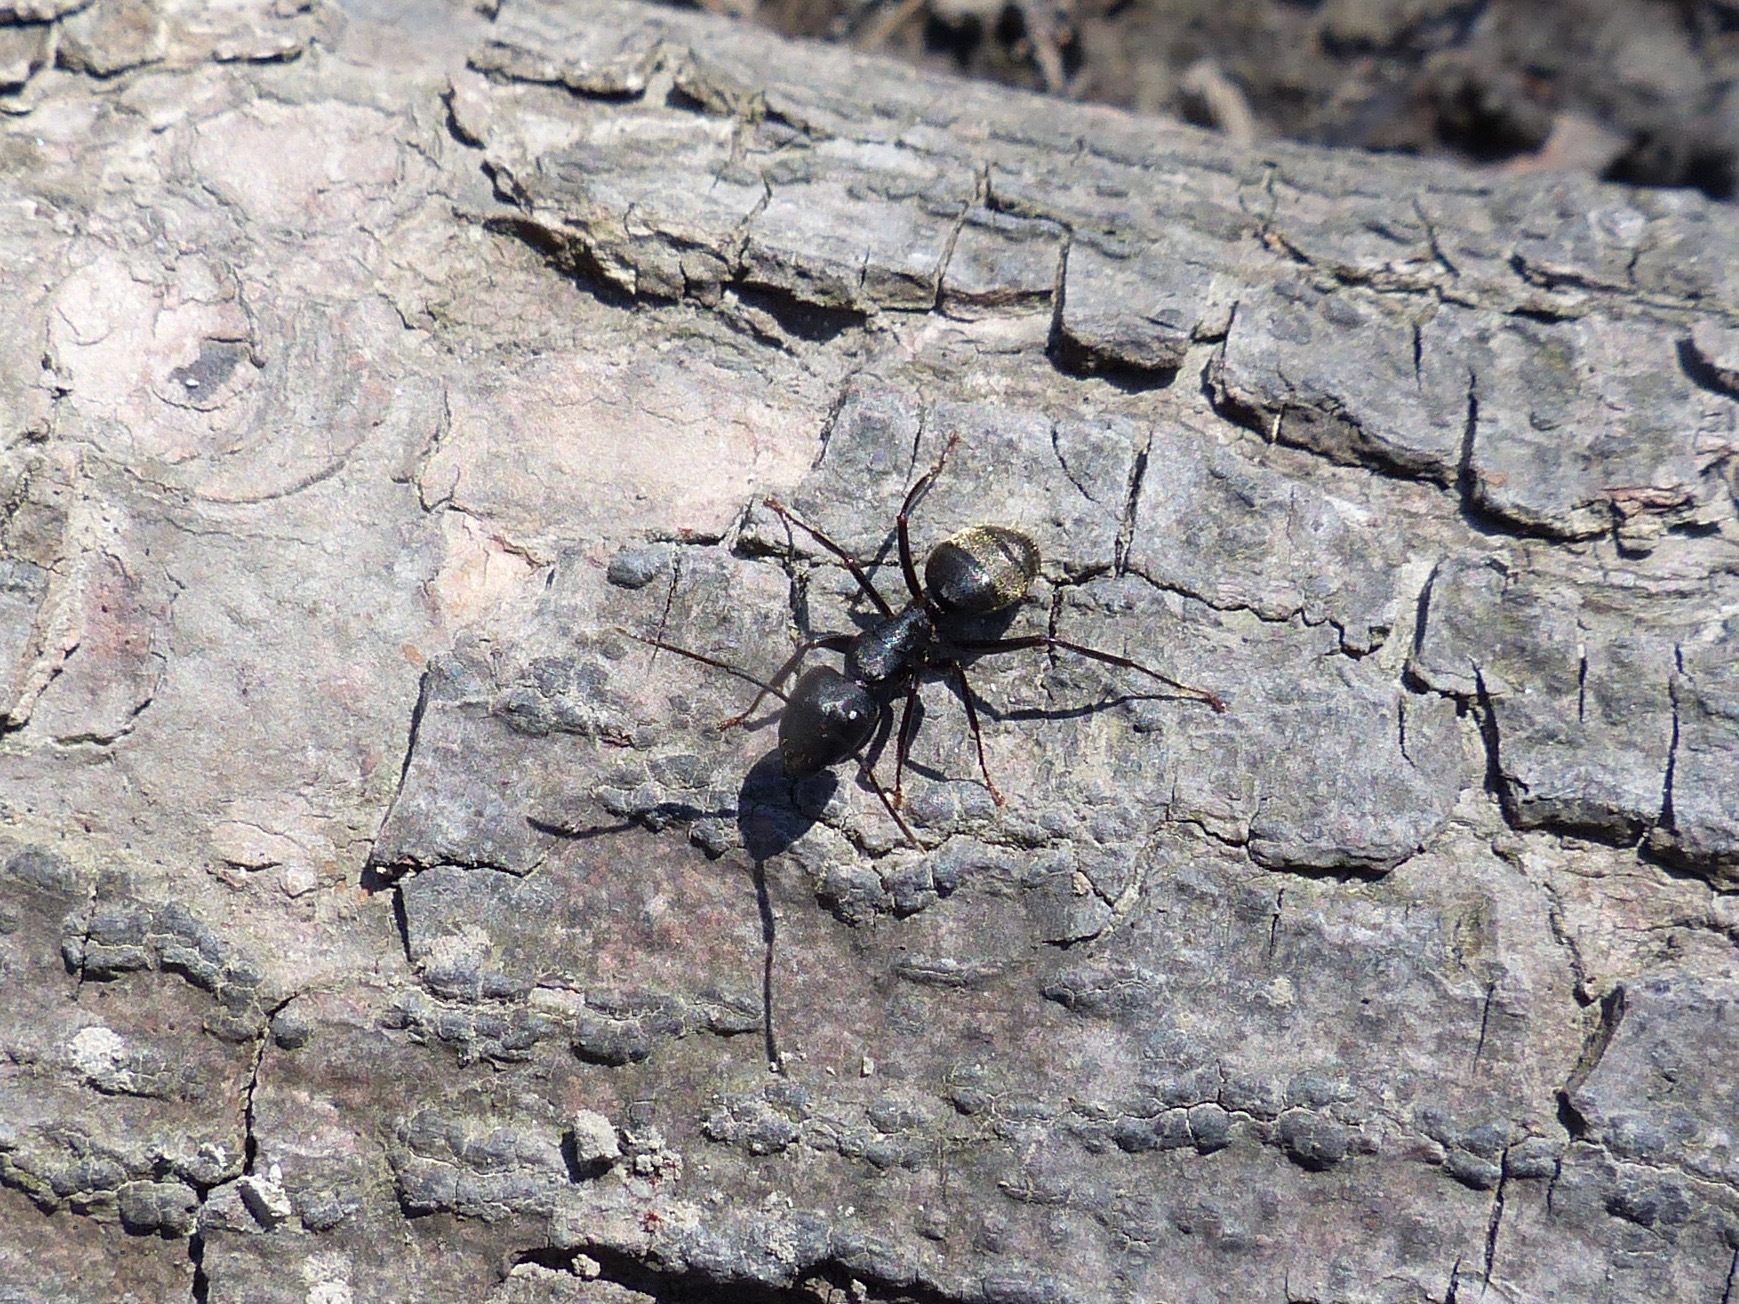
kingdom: Animalia
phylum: Arthropoda
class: Insecta
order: Hymenoptera
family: Formicidae
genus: Camponotus
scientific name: Camponotus pennsylvanicus
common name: Black carpenter ant
